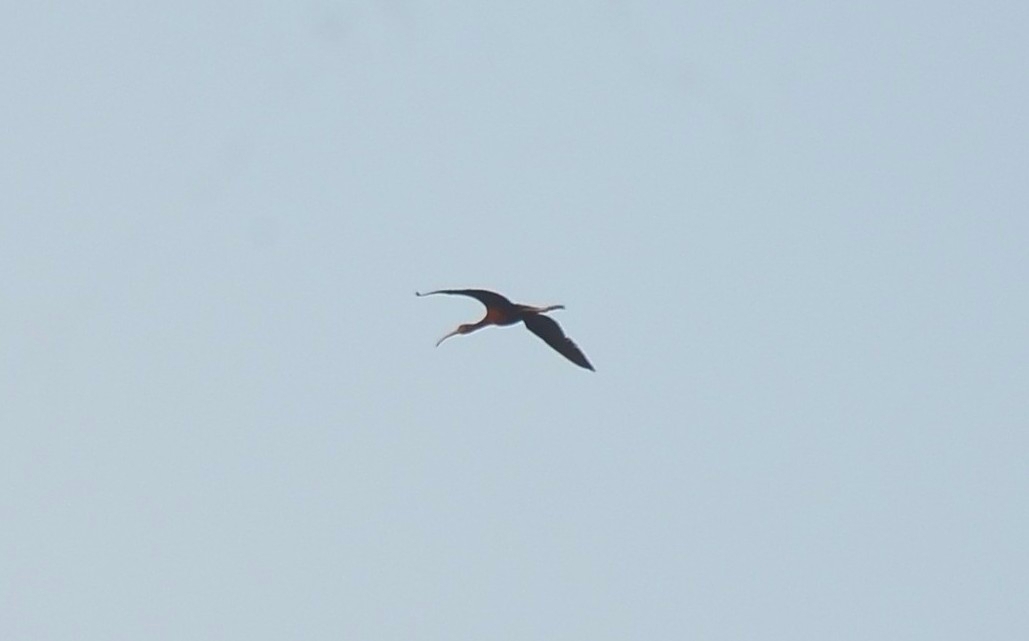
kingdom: Animalia
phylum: Chordata
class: Aves
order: Pelecaniformes
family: Threskiornithidae
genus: Plegadis
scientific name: Plegadis falcinellus
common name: Glossy ibis
